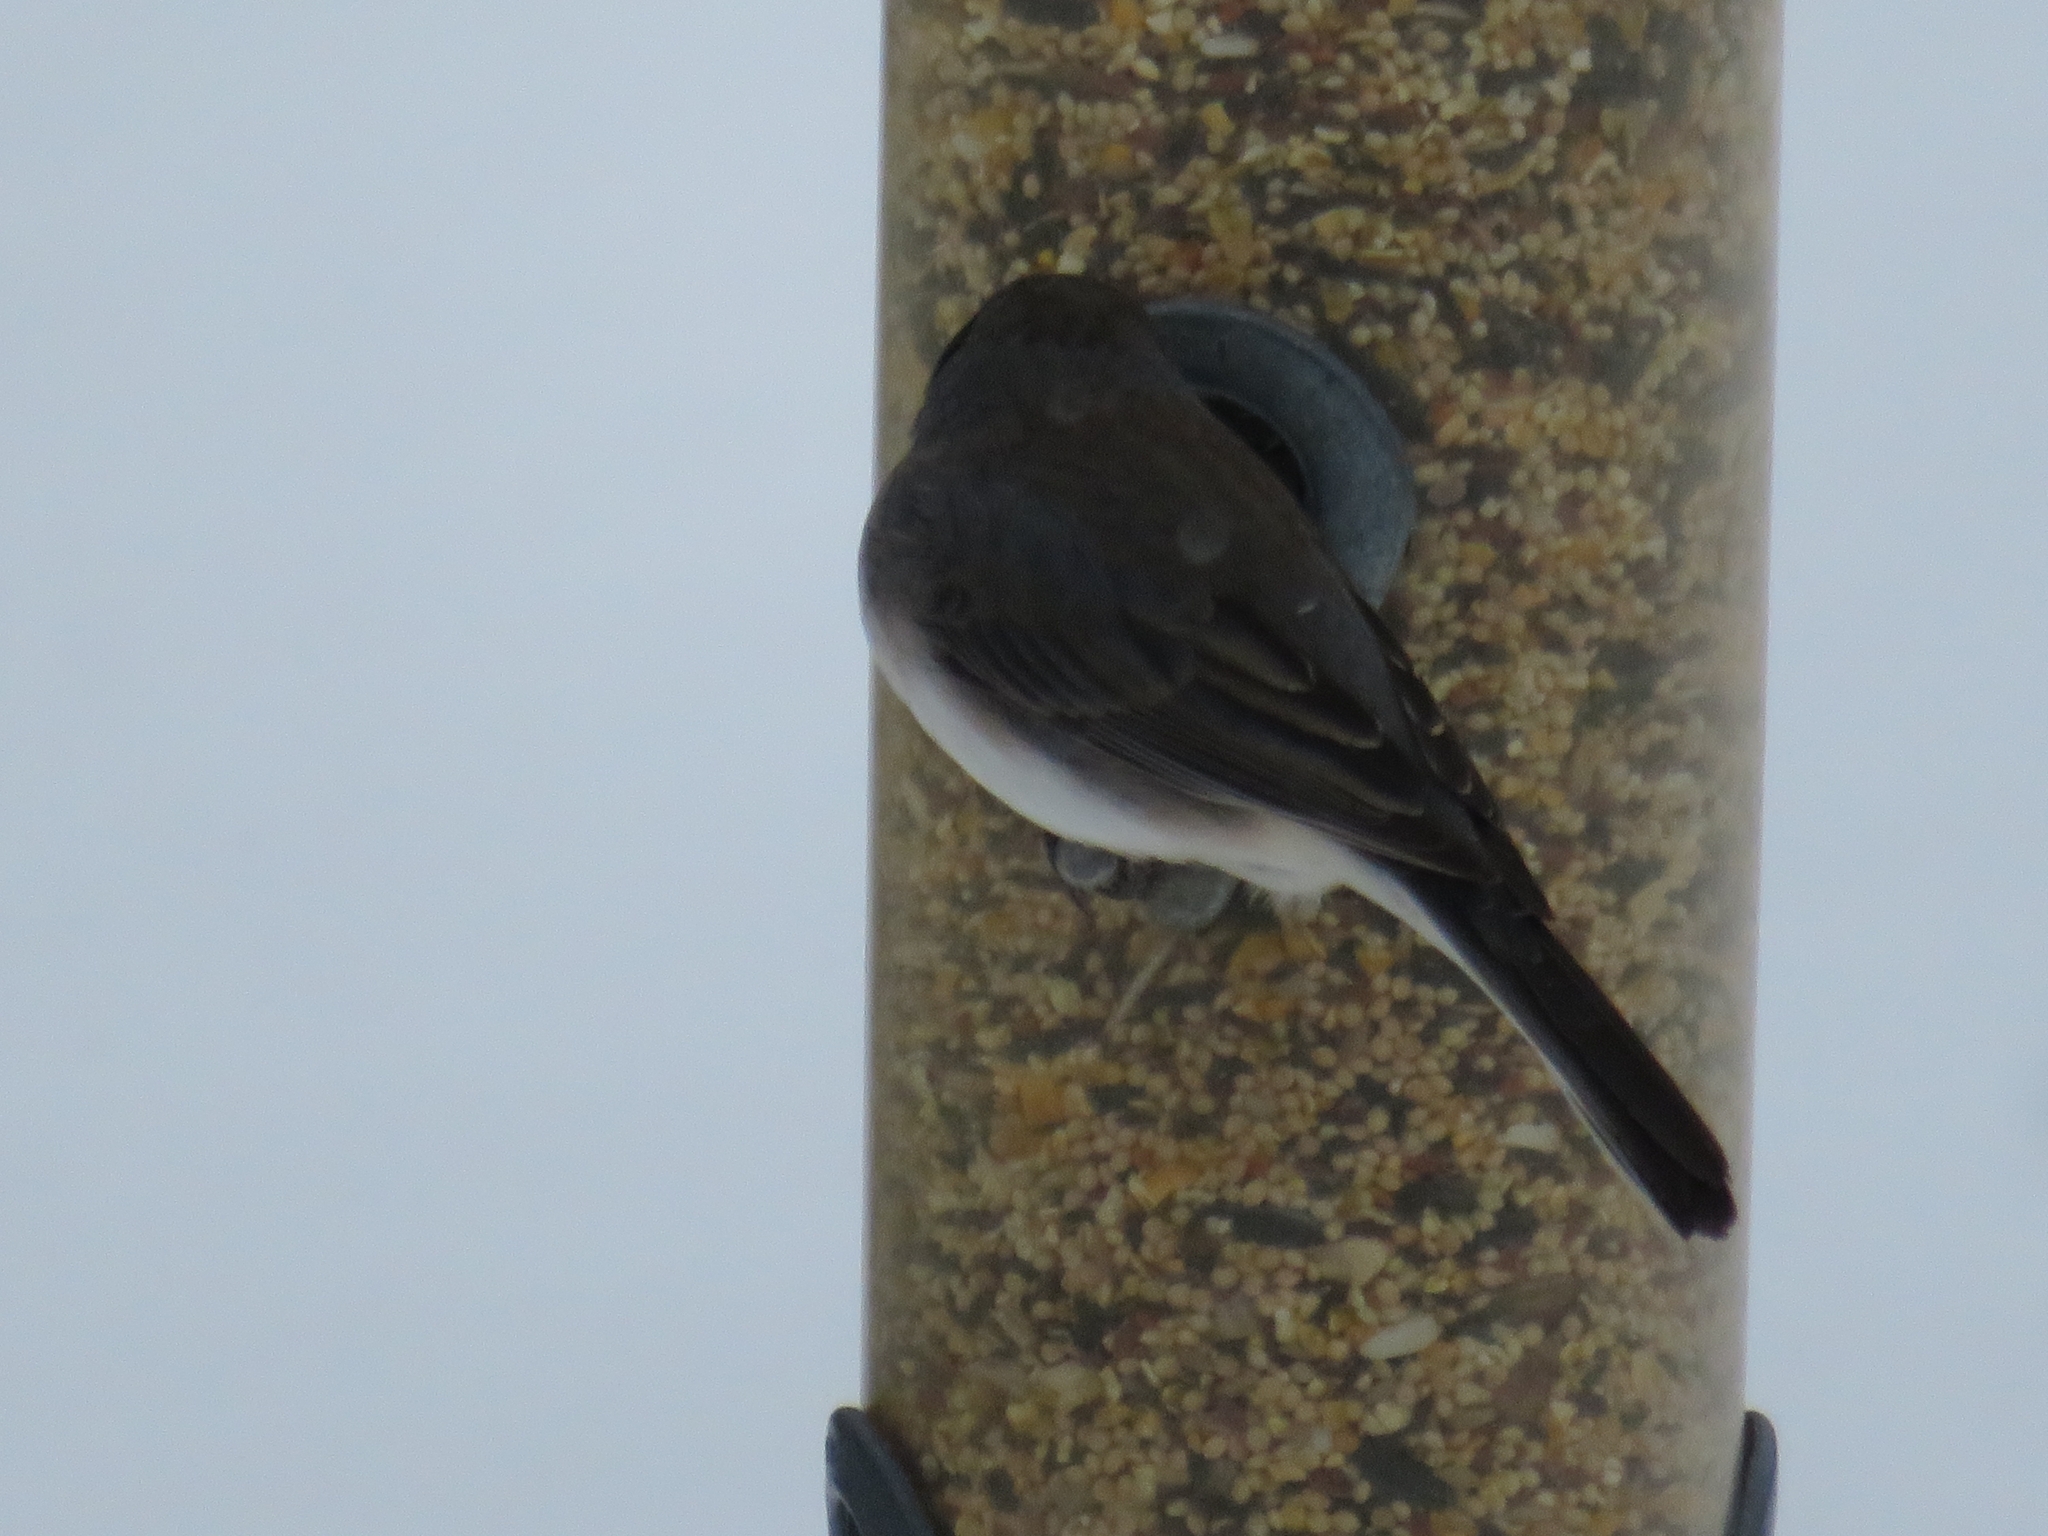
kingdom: Animalia
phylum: Chordata
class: Aves
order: Passeriformes
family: Passerellidae
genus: Junco
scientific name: Junco hyemalis
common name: Dark-eyed junco
